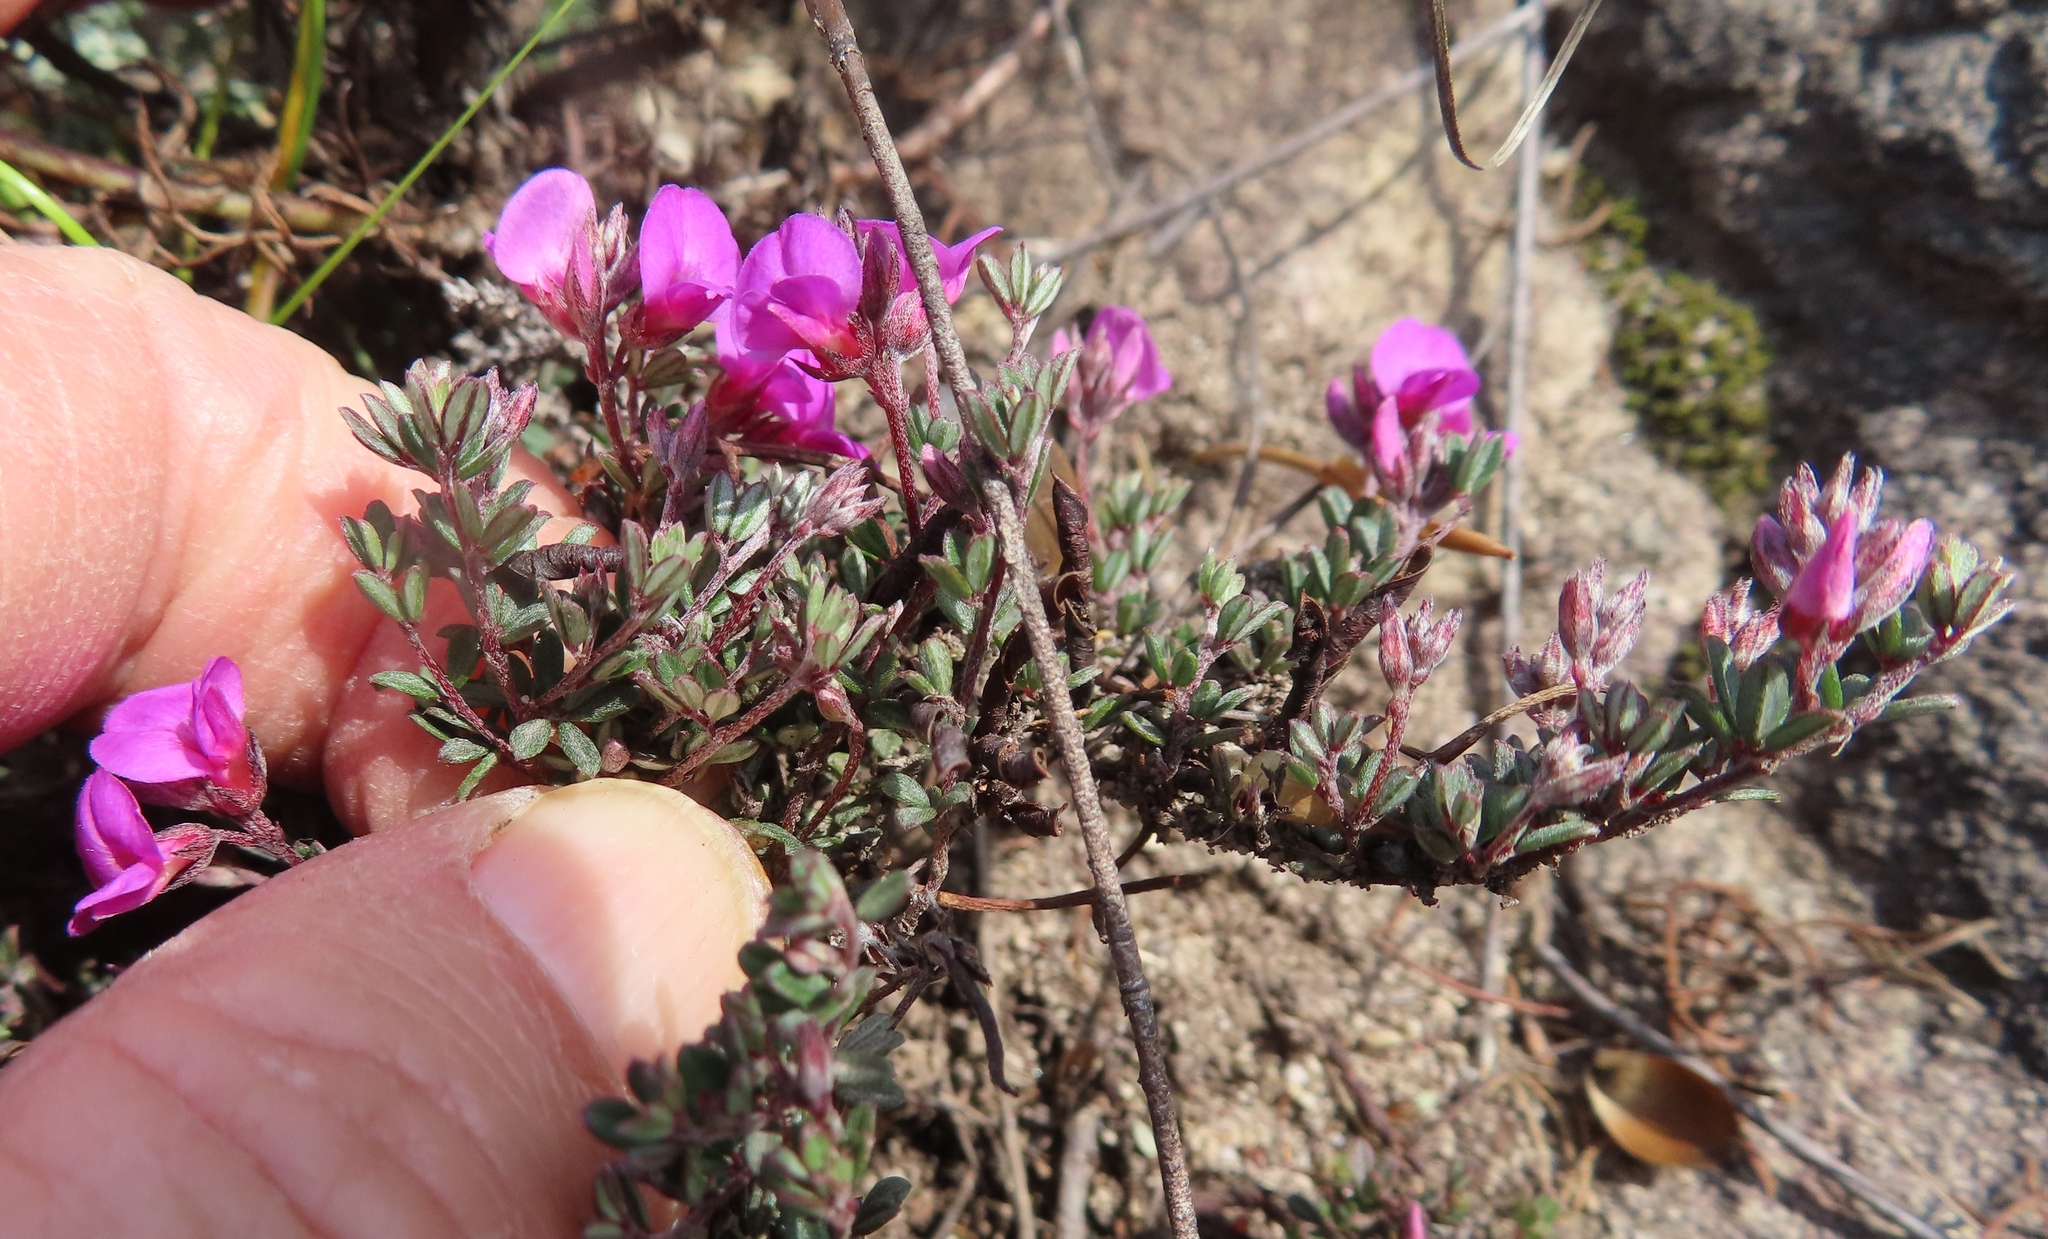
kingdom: Plantae
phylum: Tracheophyta
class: Magnoliopsida
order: Fabales
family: Fabaceae
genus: Indigofera
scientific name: Indigofera
